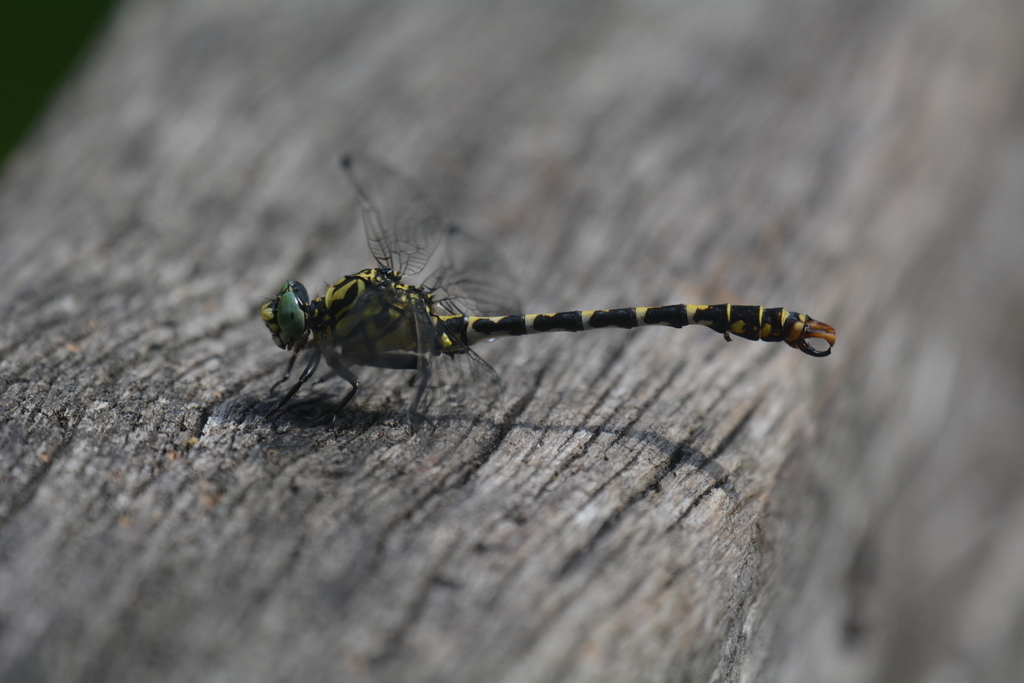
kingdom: Animalia
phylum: Arthropoda
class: Insecta
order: Odonata
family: Gomphidae
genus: Onychogomphus
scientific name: Onychogomphus forcipatus
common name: Small pincertail
